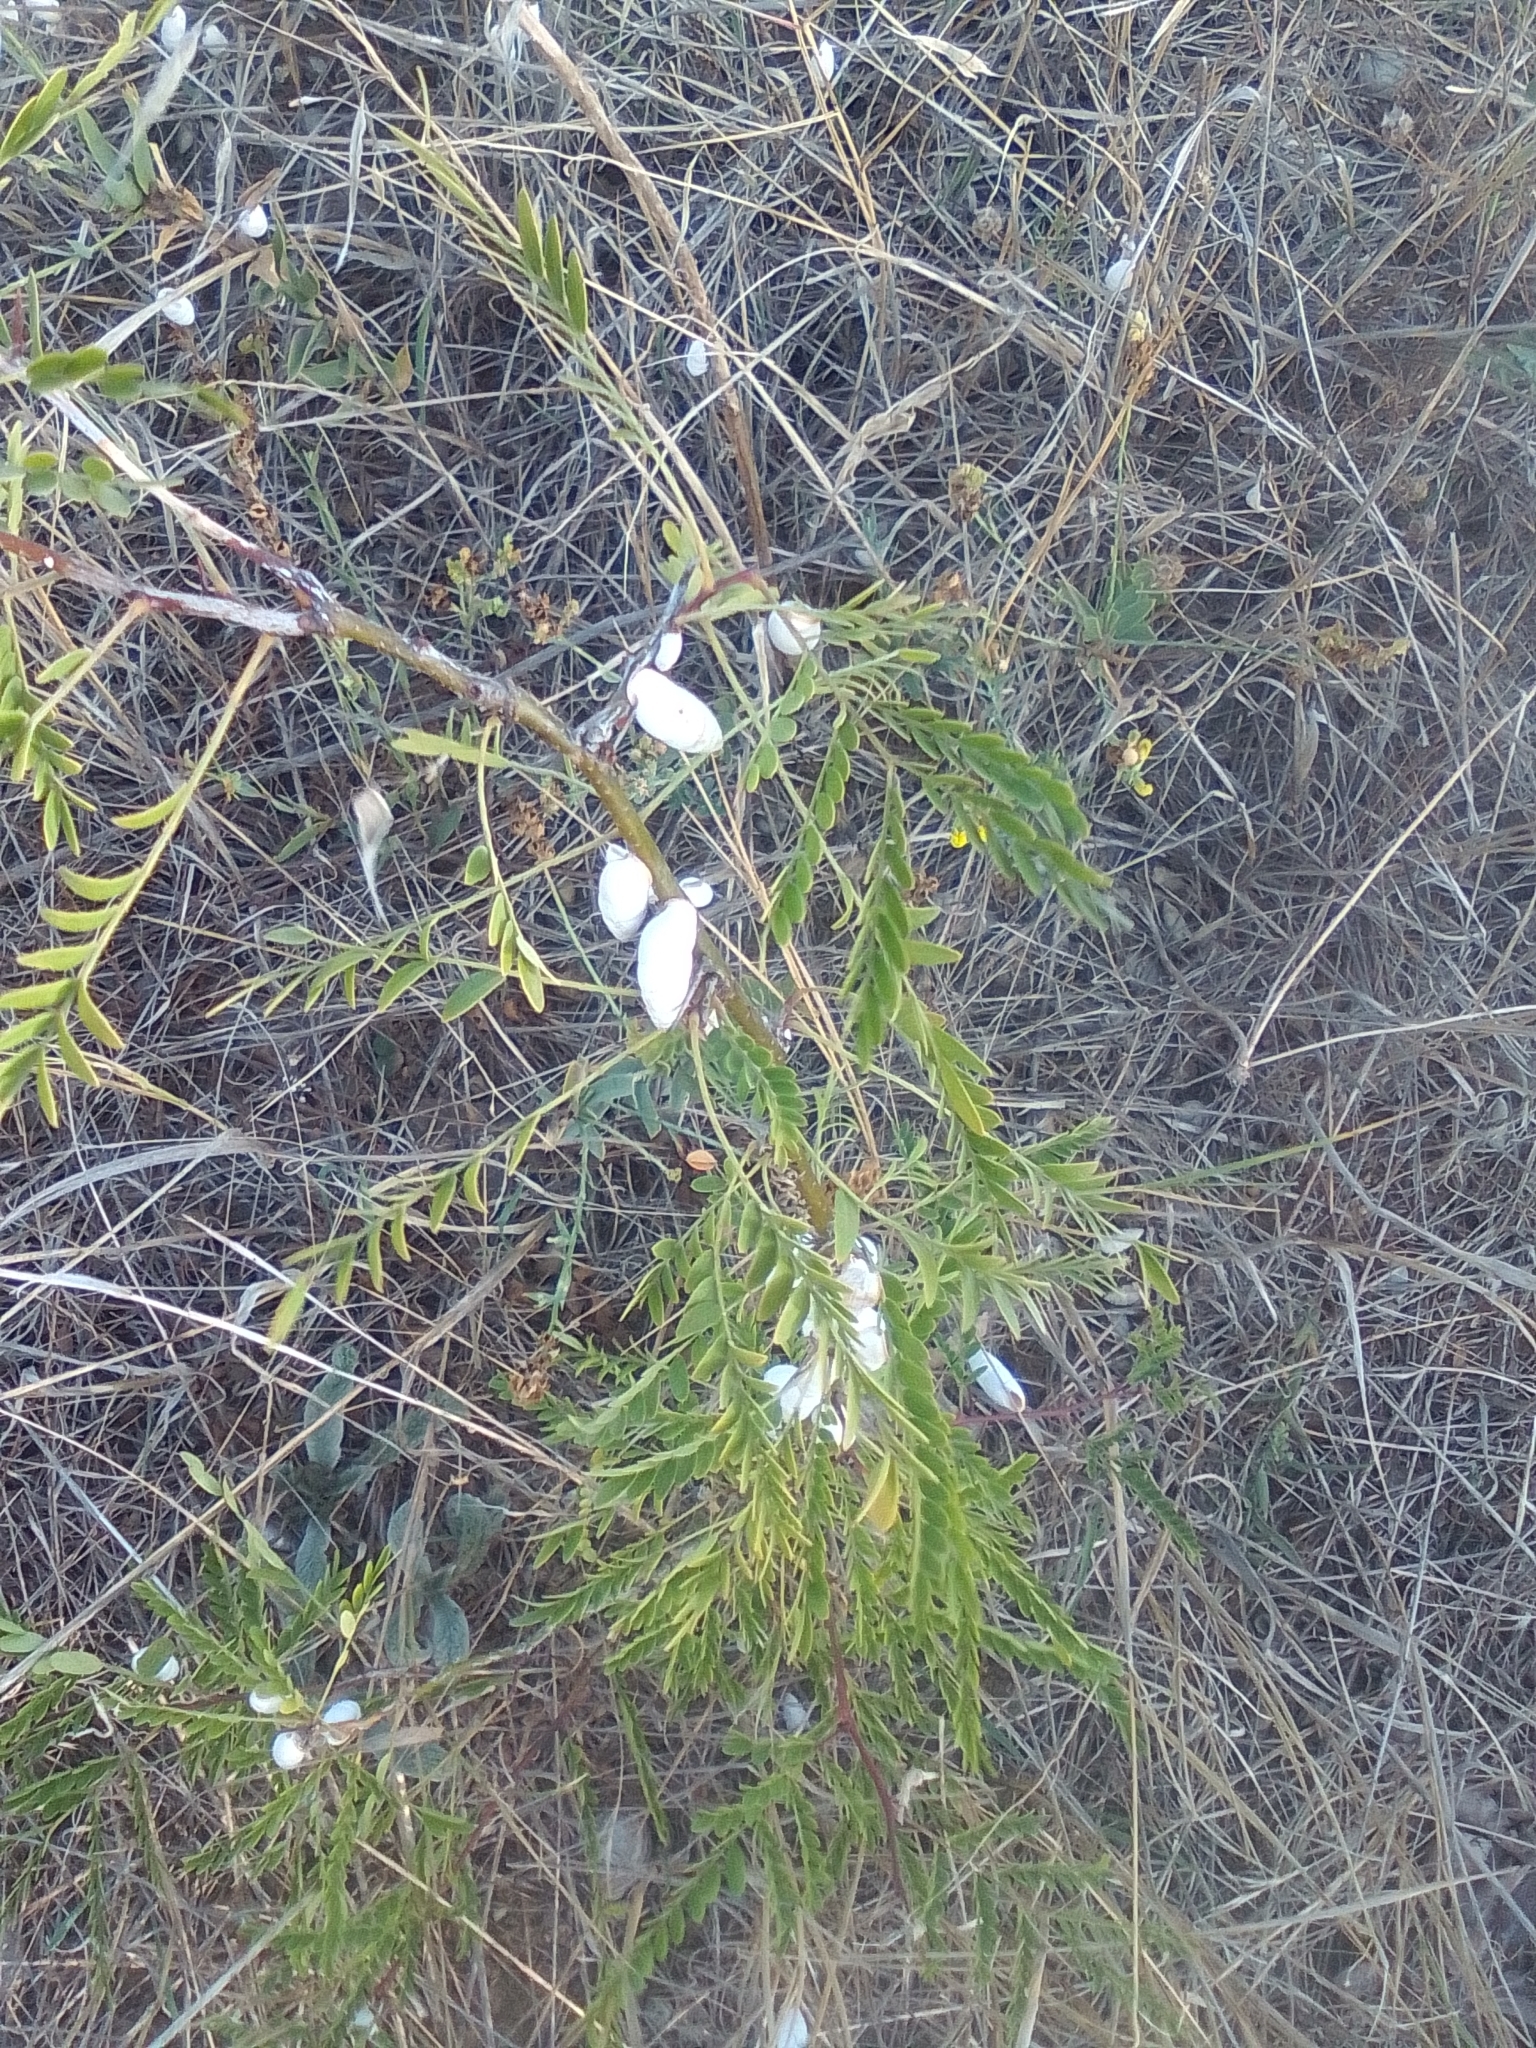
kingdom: Plantae
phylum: Tracheophyta
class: Magnoliopsida
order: Fabales
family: Fabaceae
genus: Gleditsia
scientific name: Gleditsia triacanthos
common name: Common honeylocust
